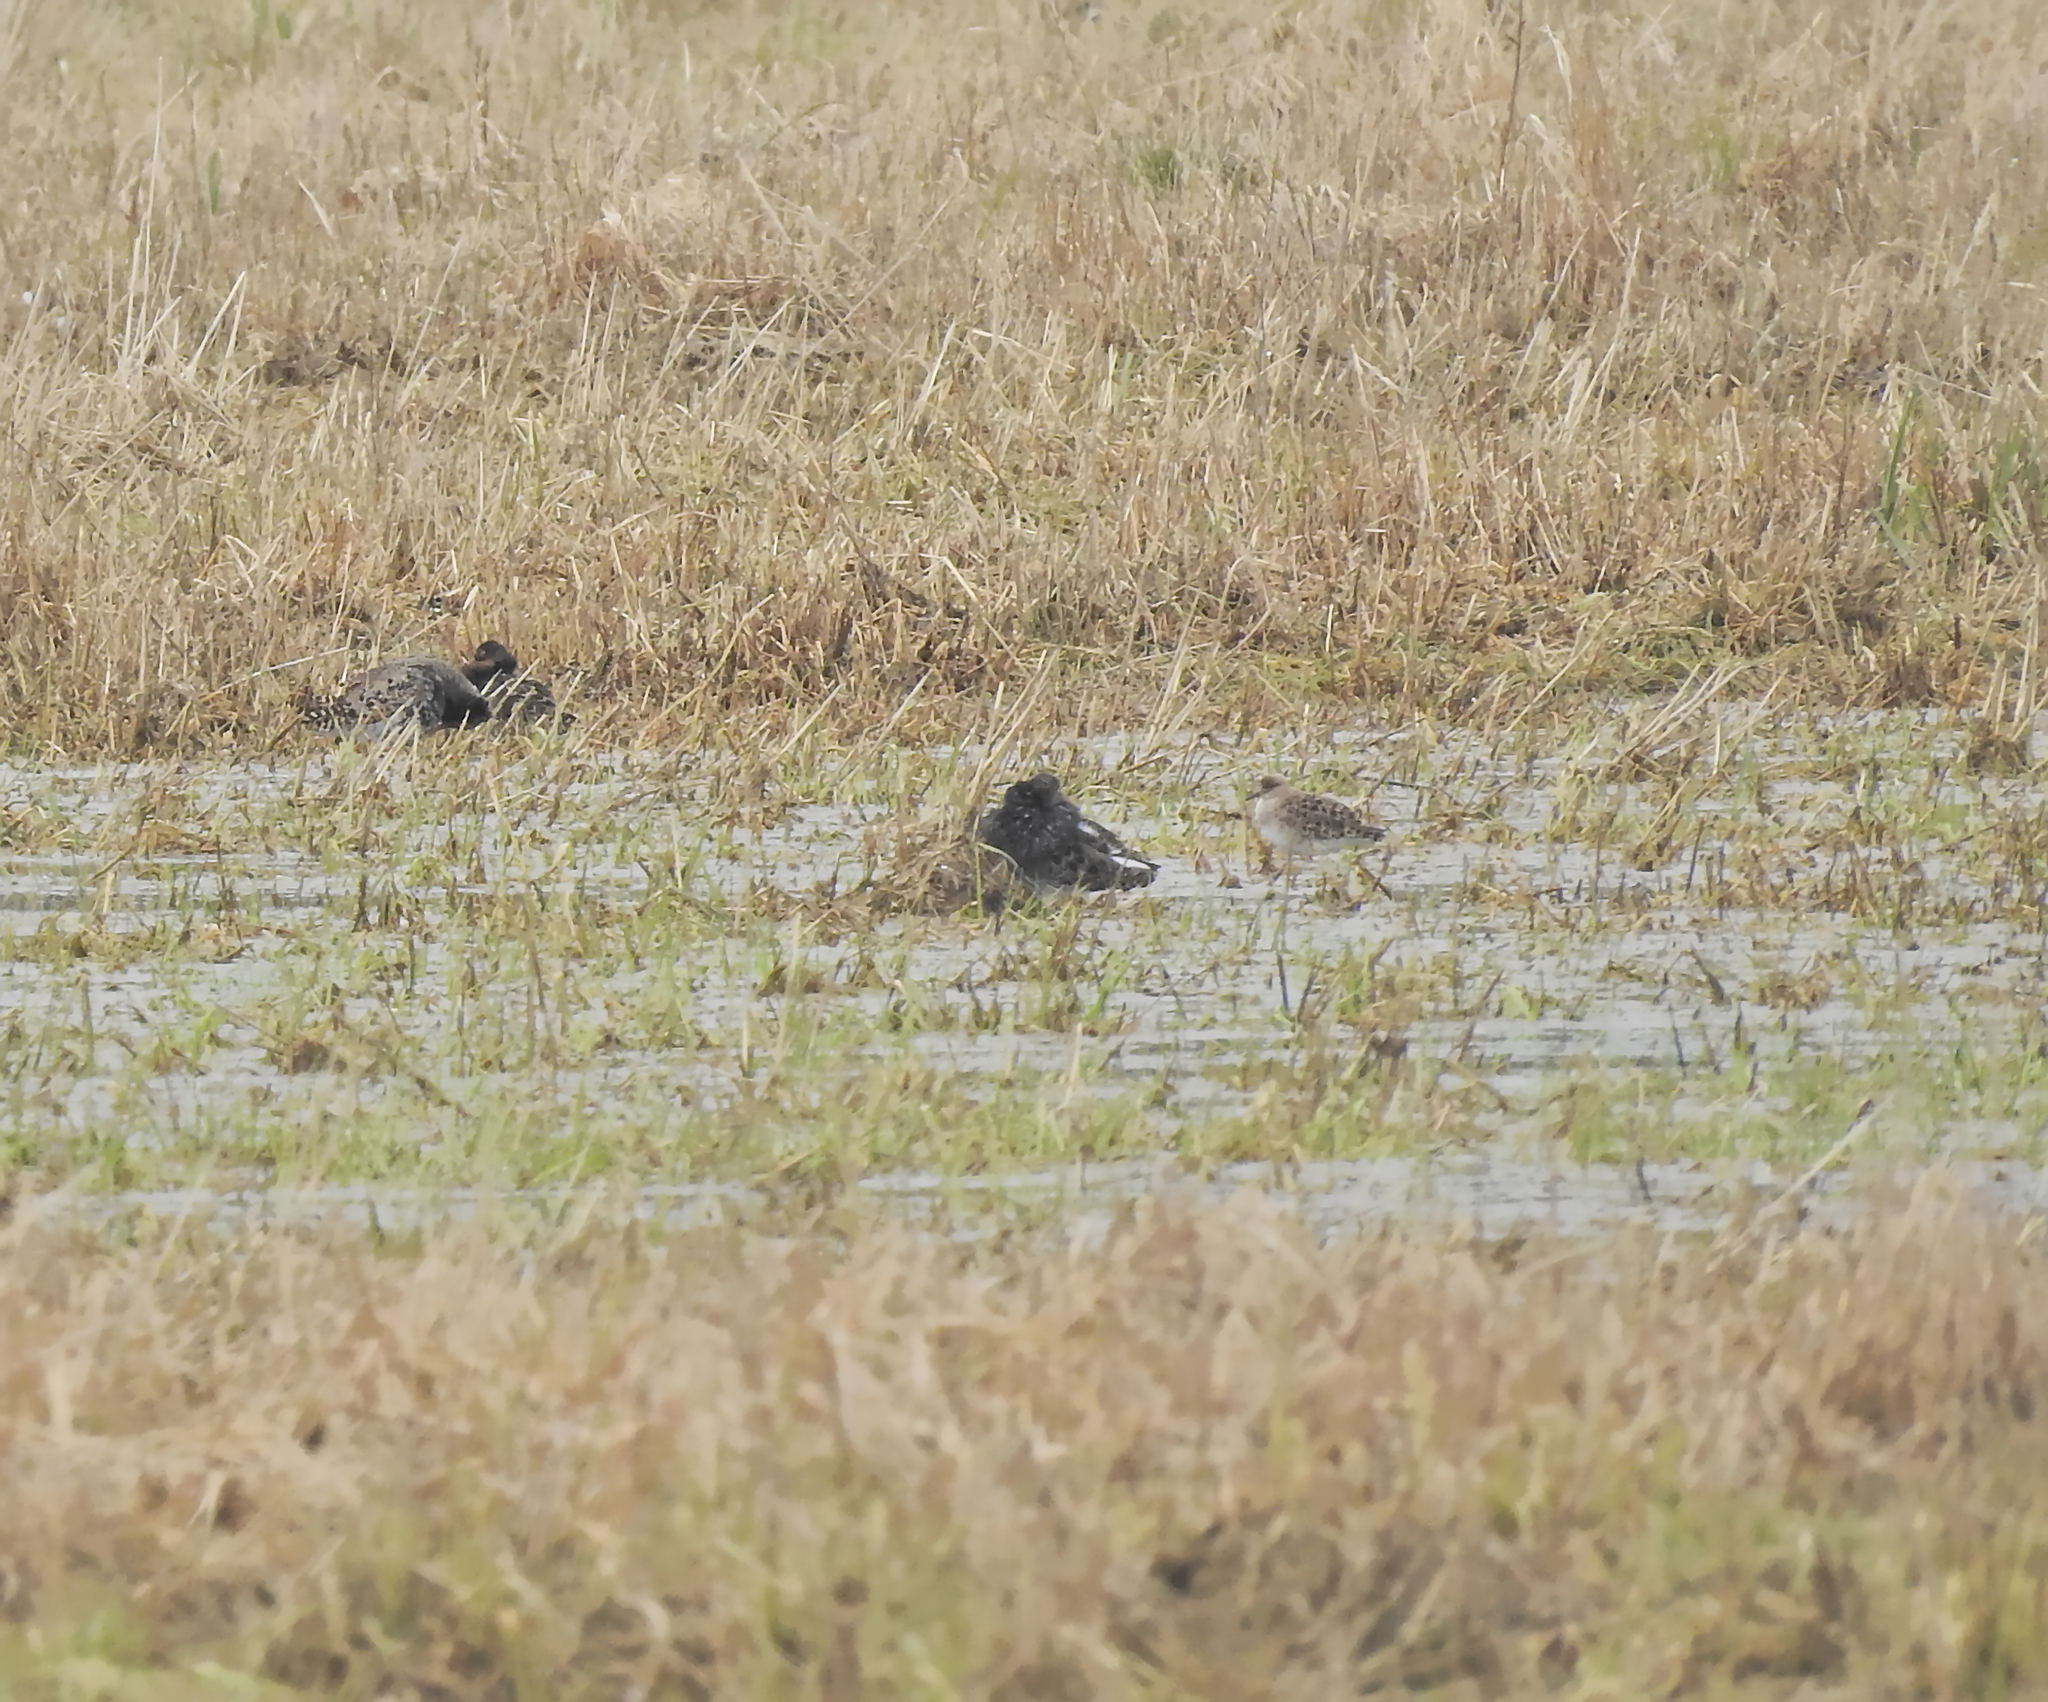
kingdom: Animalia
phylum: Chordata
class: Aves
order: Charadriiformes
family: Scolopacidae
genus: Calidris
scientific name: Calidris pugnax
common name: Ruff
